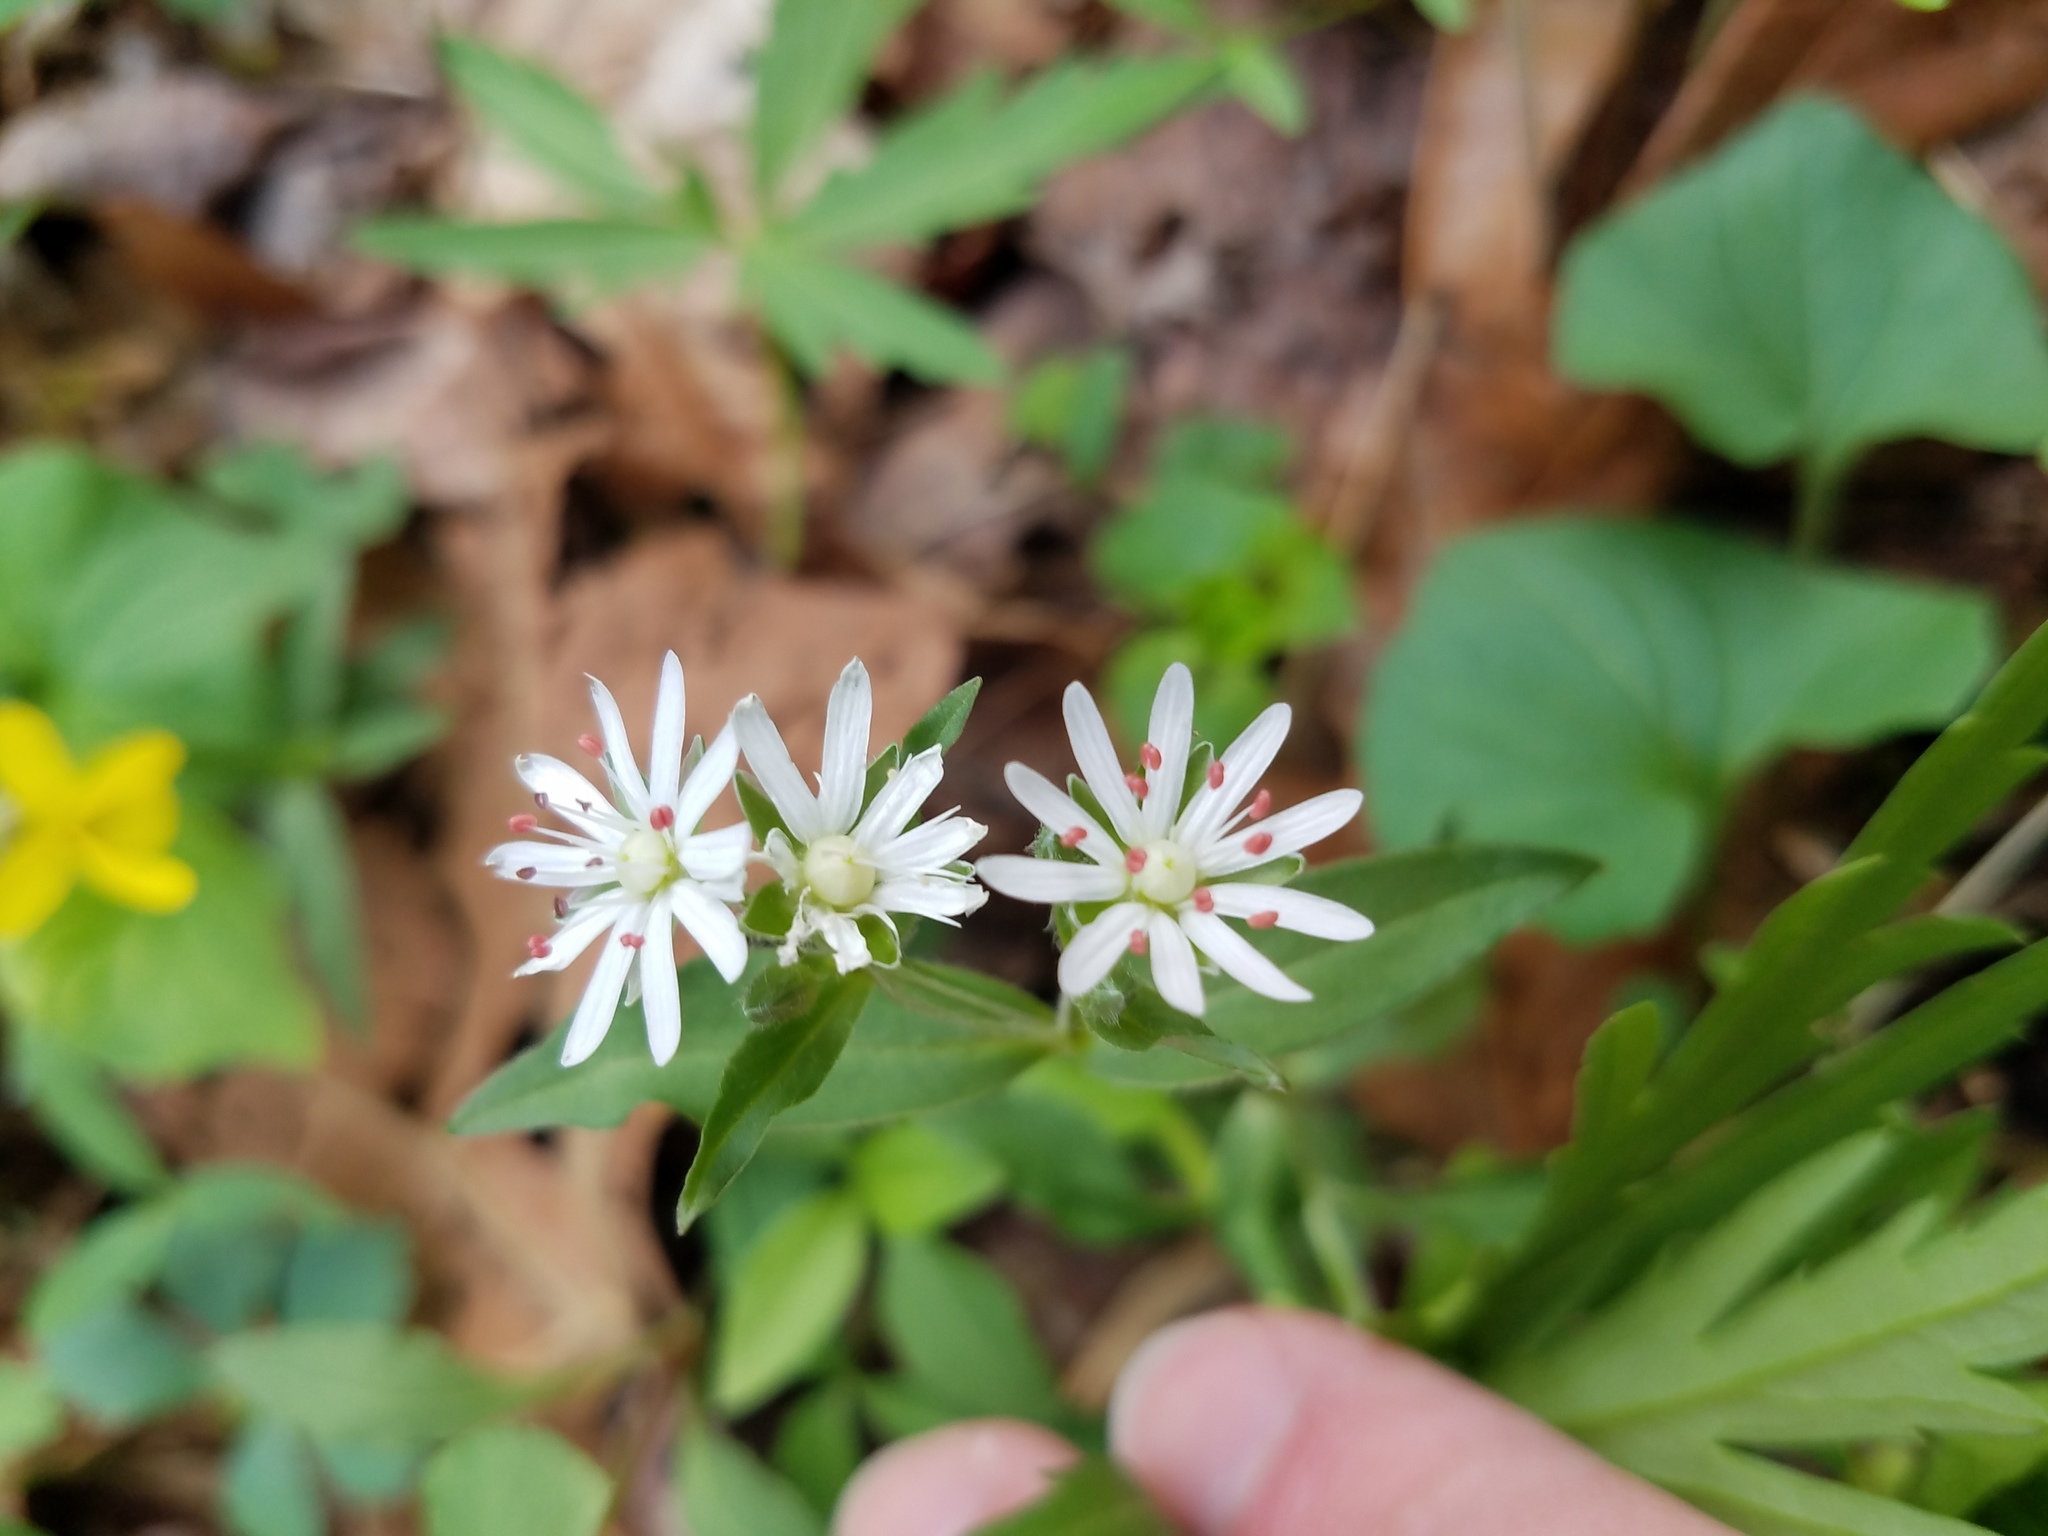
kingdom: Plantae
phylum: Tracheophyta
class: Magnoliopsida
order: Caryophyllales
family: Caryophyllaceae
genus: Stellaria
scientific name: Stellaria pubera
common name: Star chickweed
